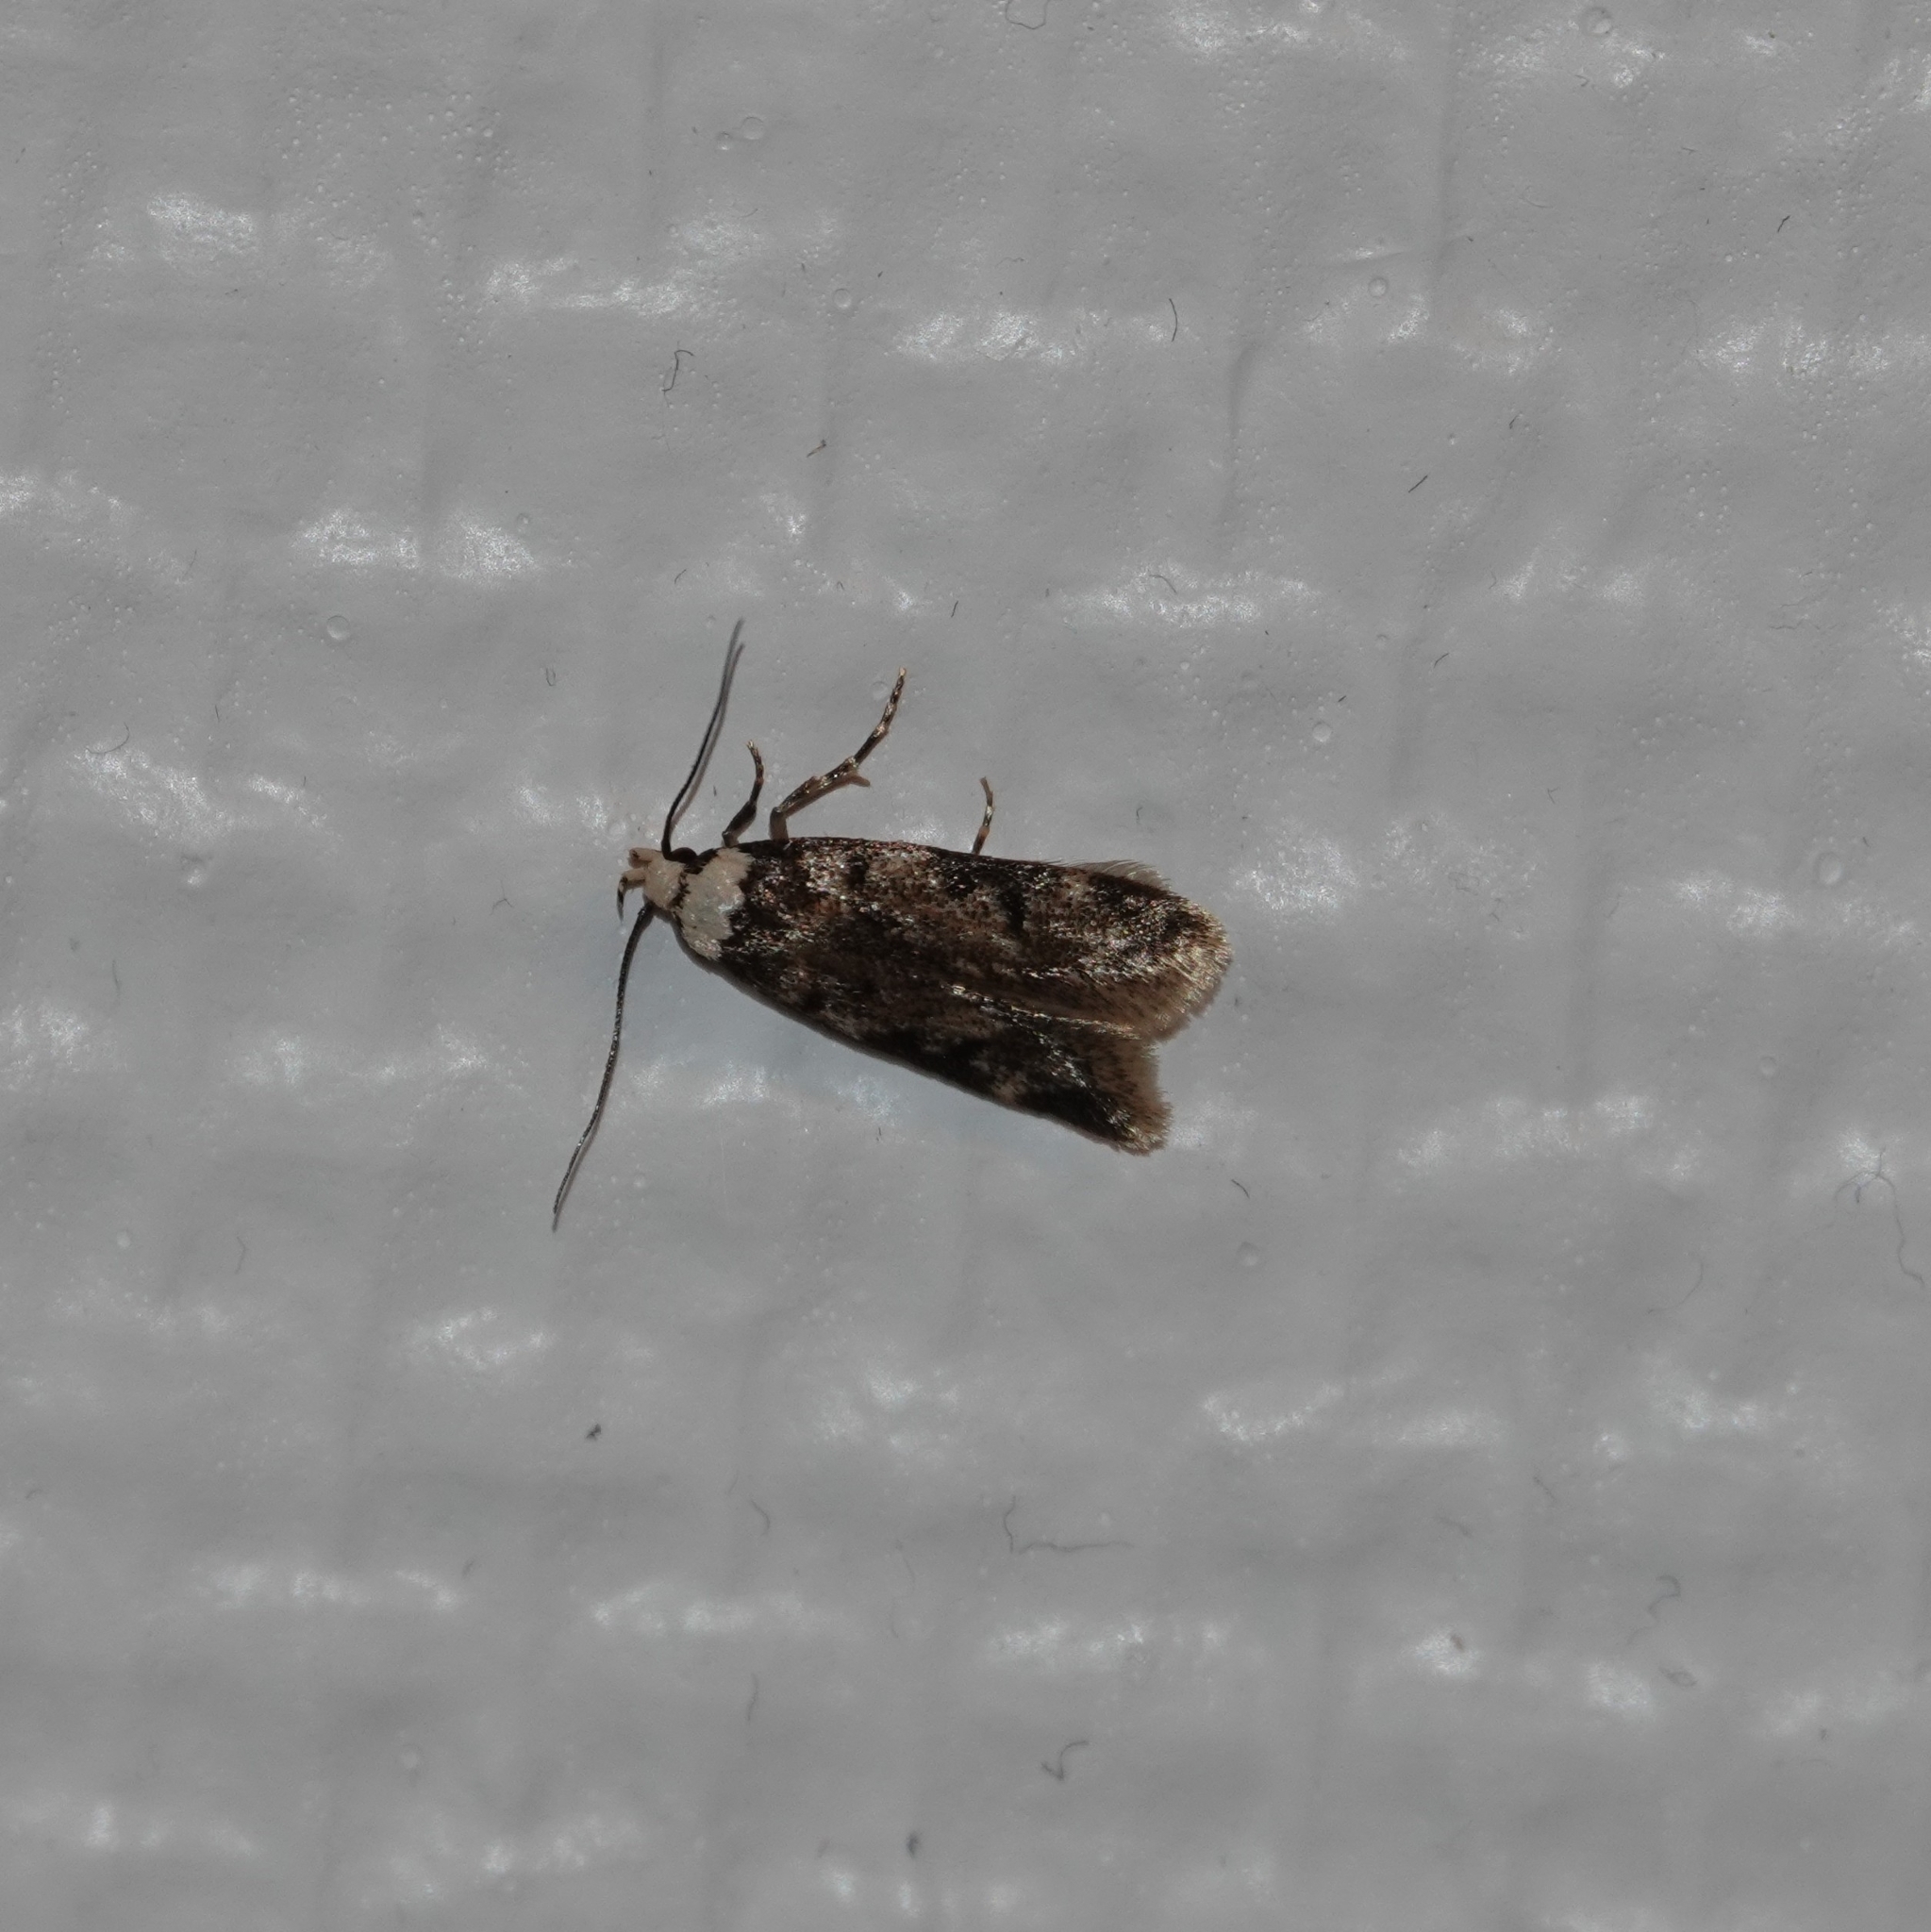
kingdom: Animalia
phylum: Arthropoda
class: Insecta
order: Lepidoptera
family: Oecophoridae
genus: Endrosis
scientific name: Endrosis sarcitrella
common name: White-shouldered house moth
